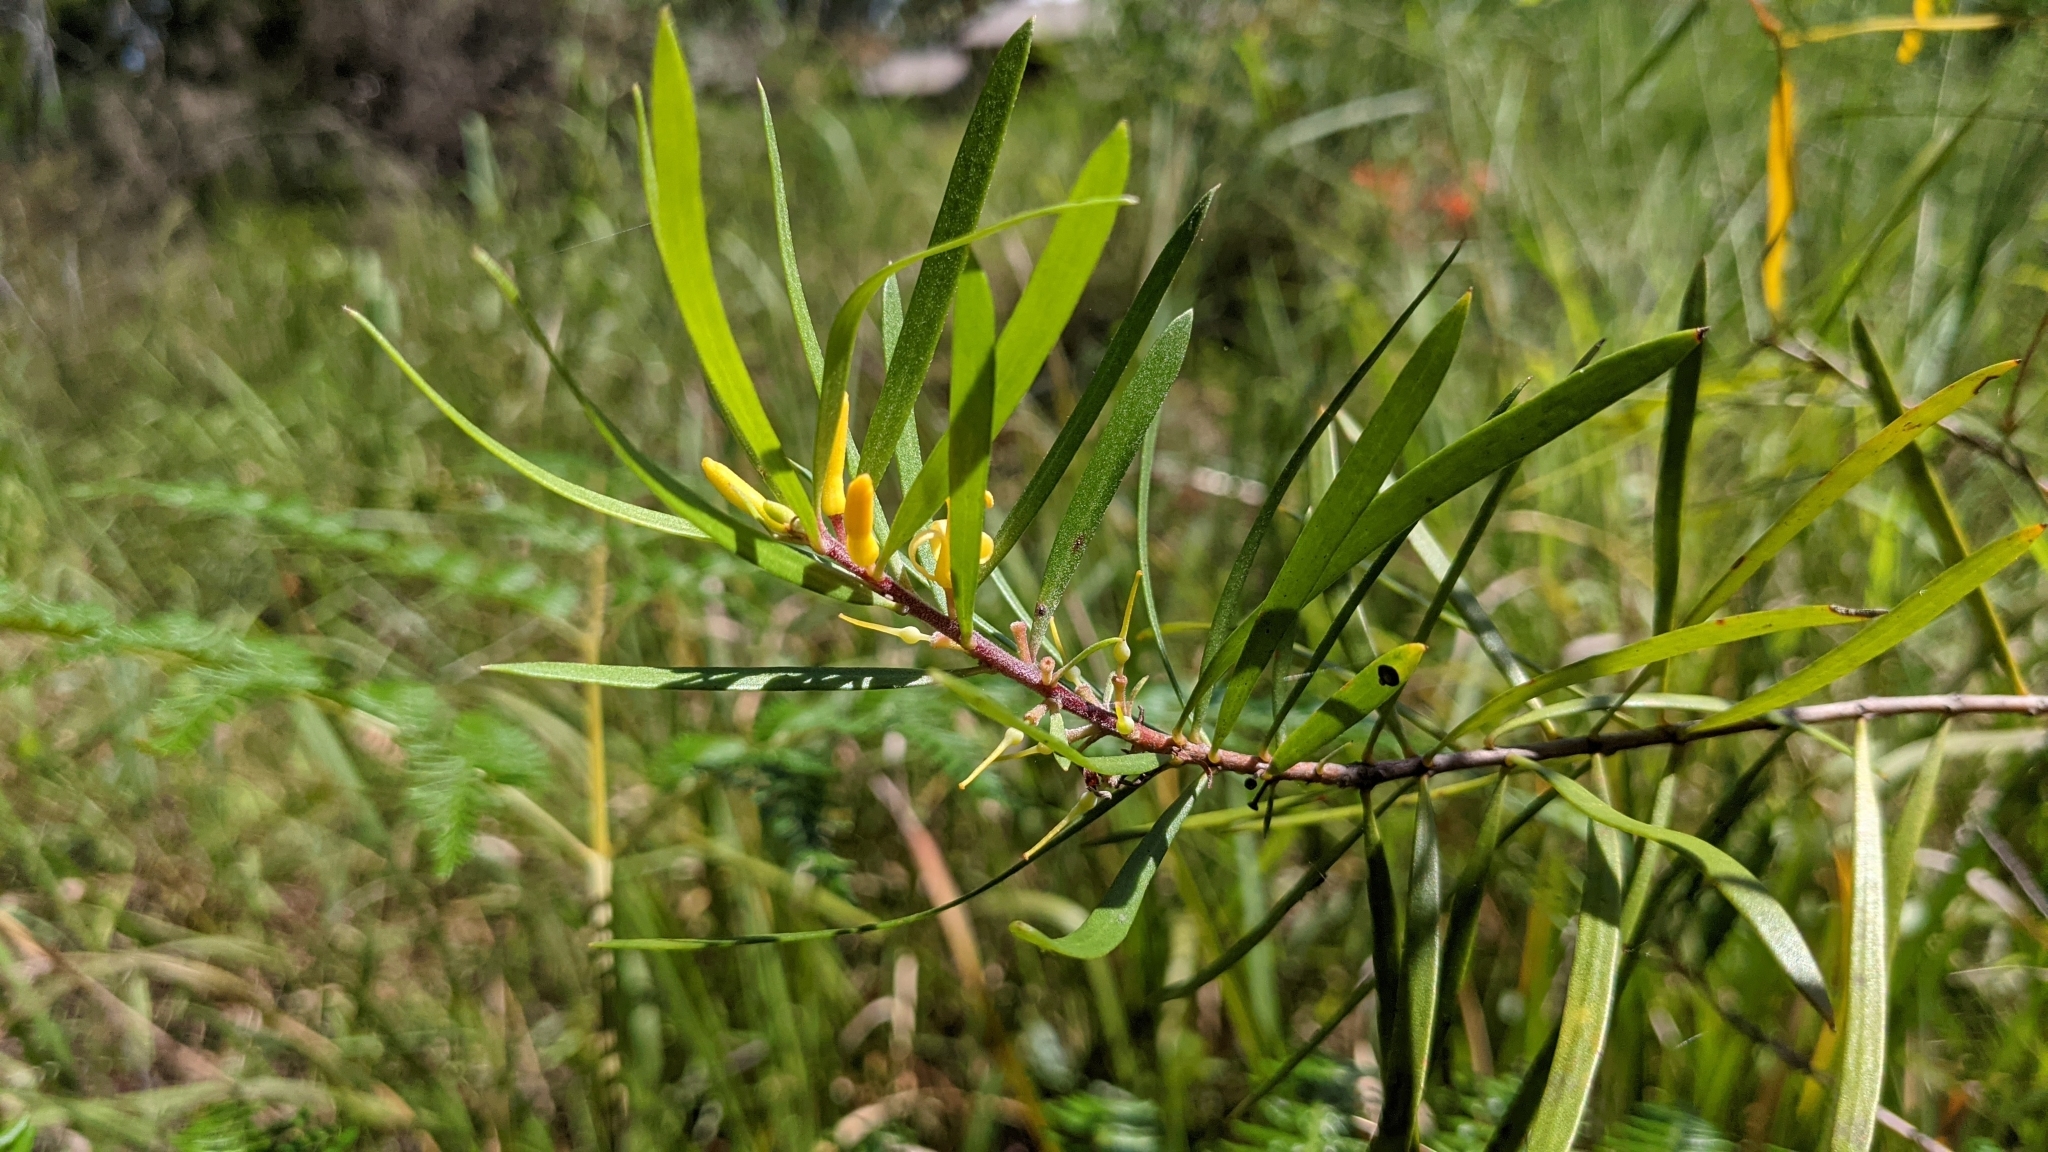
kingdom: Plantae
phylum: Tracheophyta
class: Magnoliopsida
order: Proteales
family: Proteaceae
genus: Persoonia
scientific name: Persoonia linearis
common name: Narrow-leaf geebung
